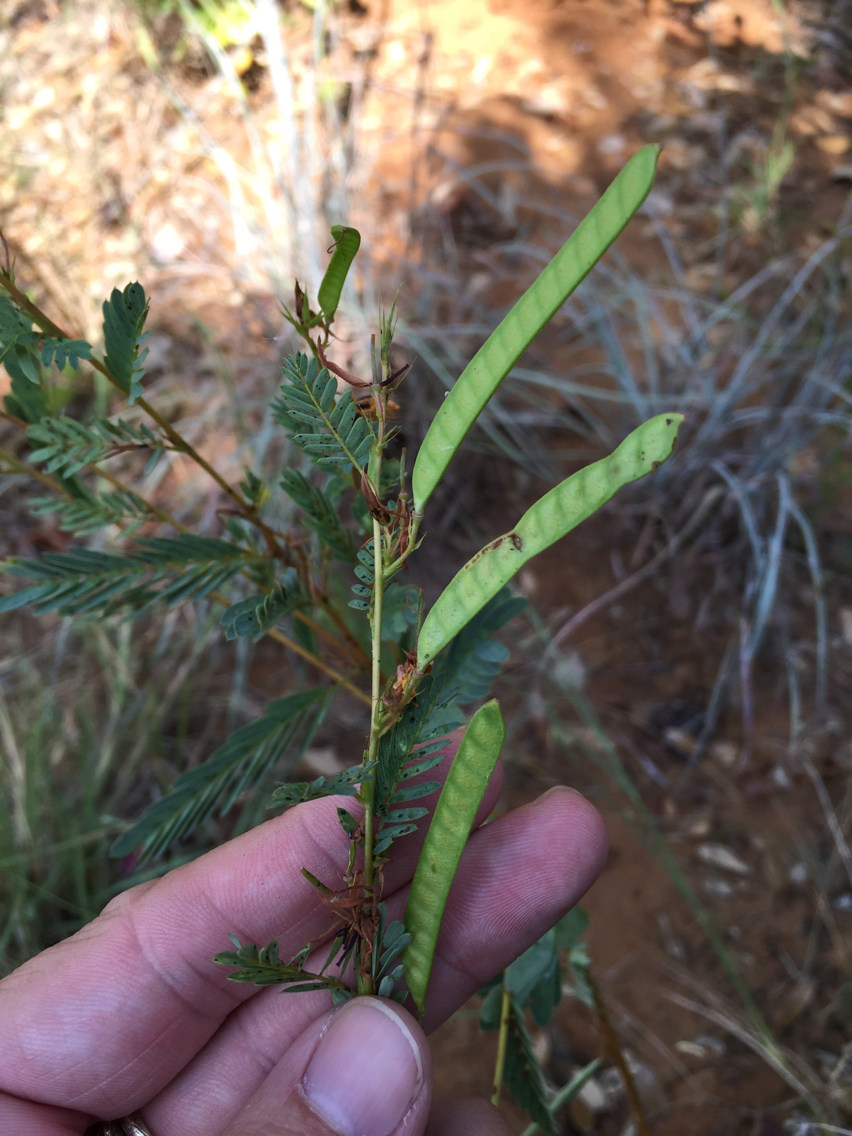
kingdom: Plantae
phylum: Tracheophyta
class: Magnoliopsida
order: Fabales
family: Fabaceae
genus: Chamaecrista
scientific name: Chamaecrista fasciculata
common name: Golden cassia
